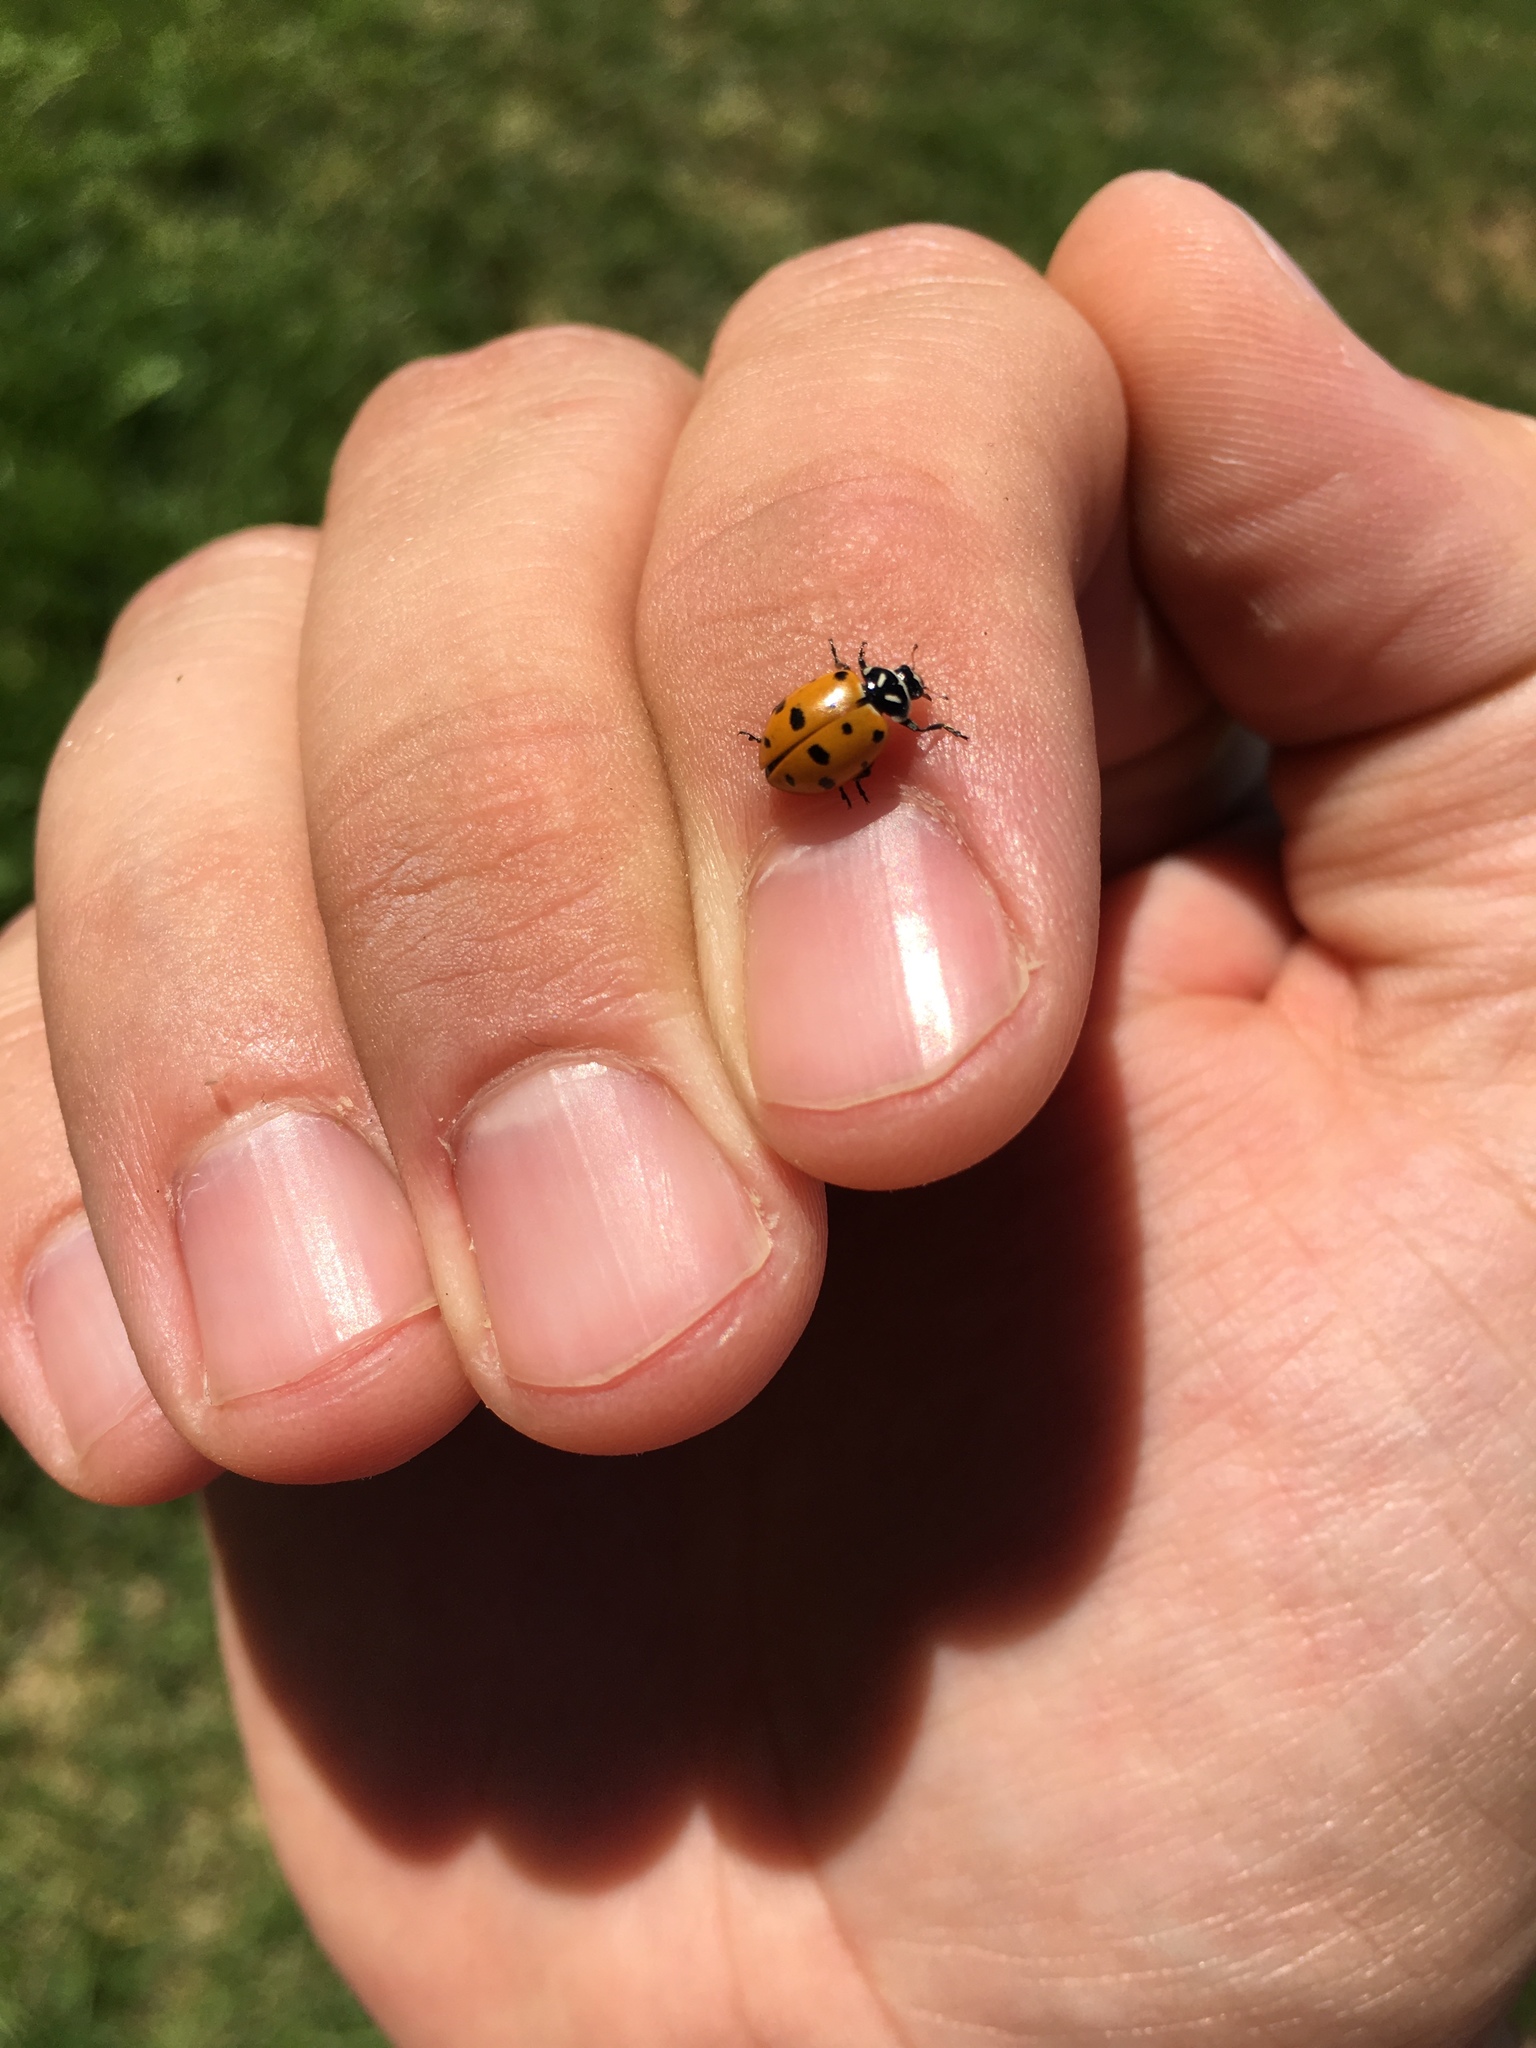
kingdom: Animalia
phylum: Arthropoda
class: Insecta
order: Coleoptera
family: Coccinellidae
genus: Hippodamia
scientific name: Hippodamia convergens
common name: Convergent lady beetle
